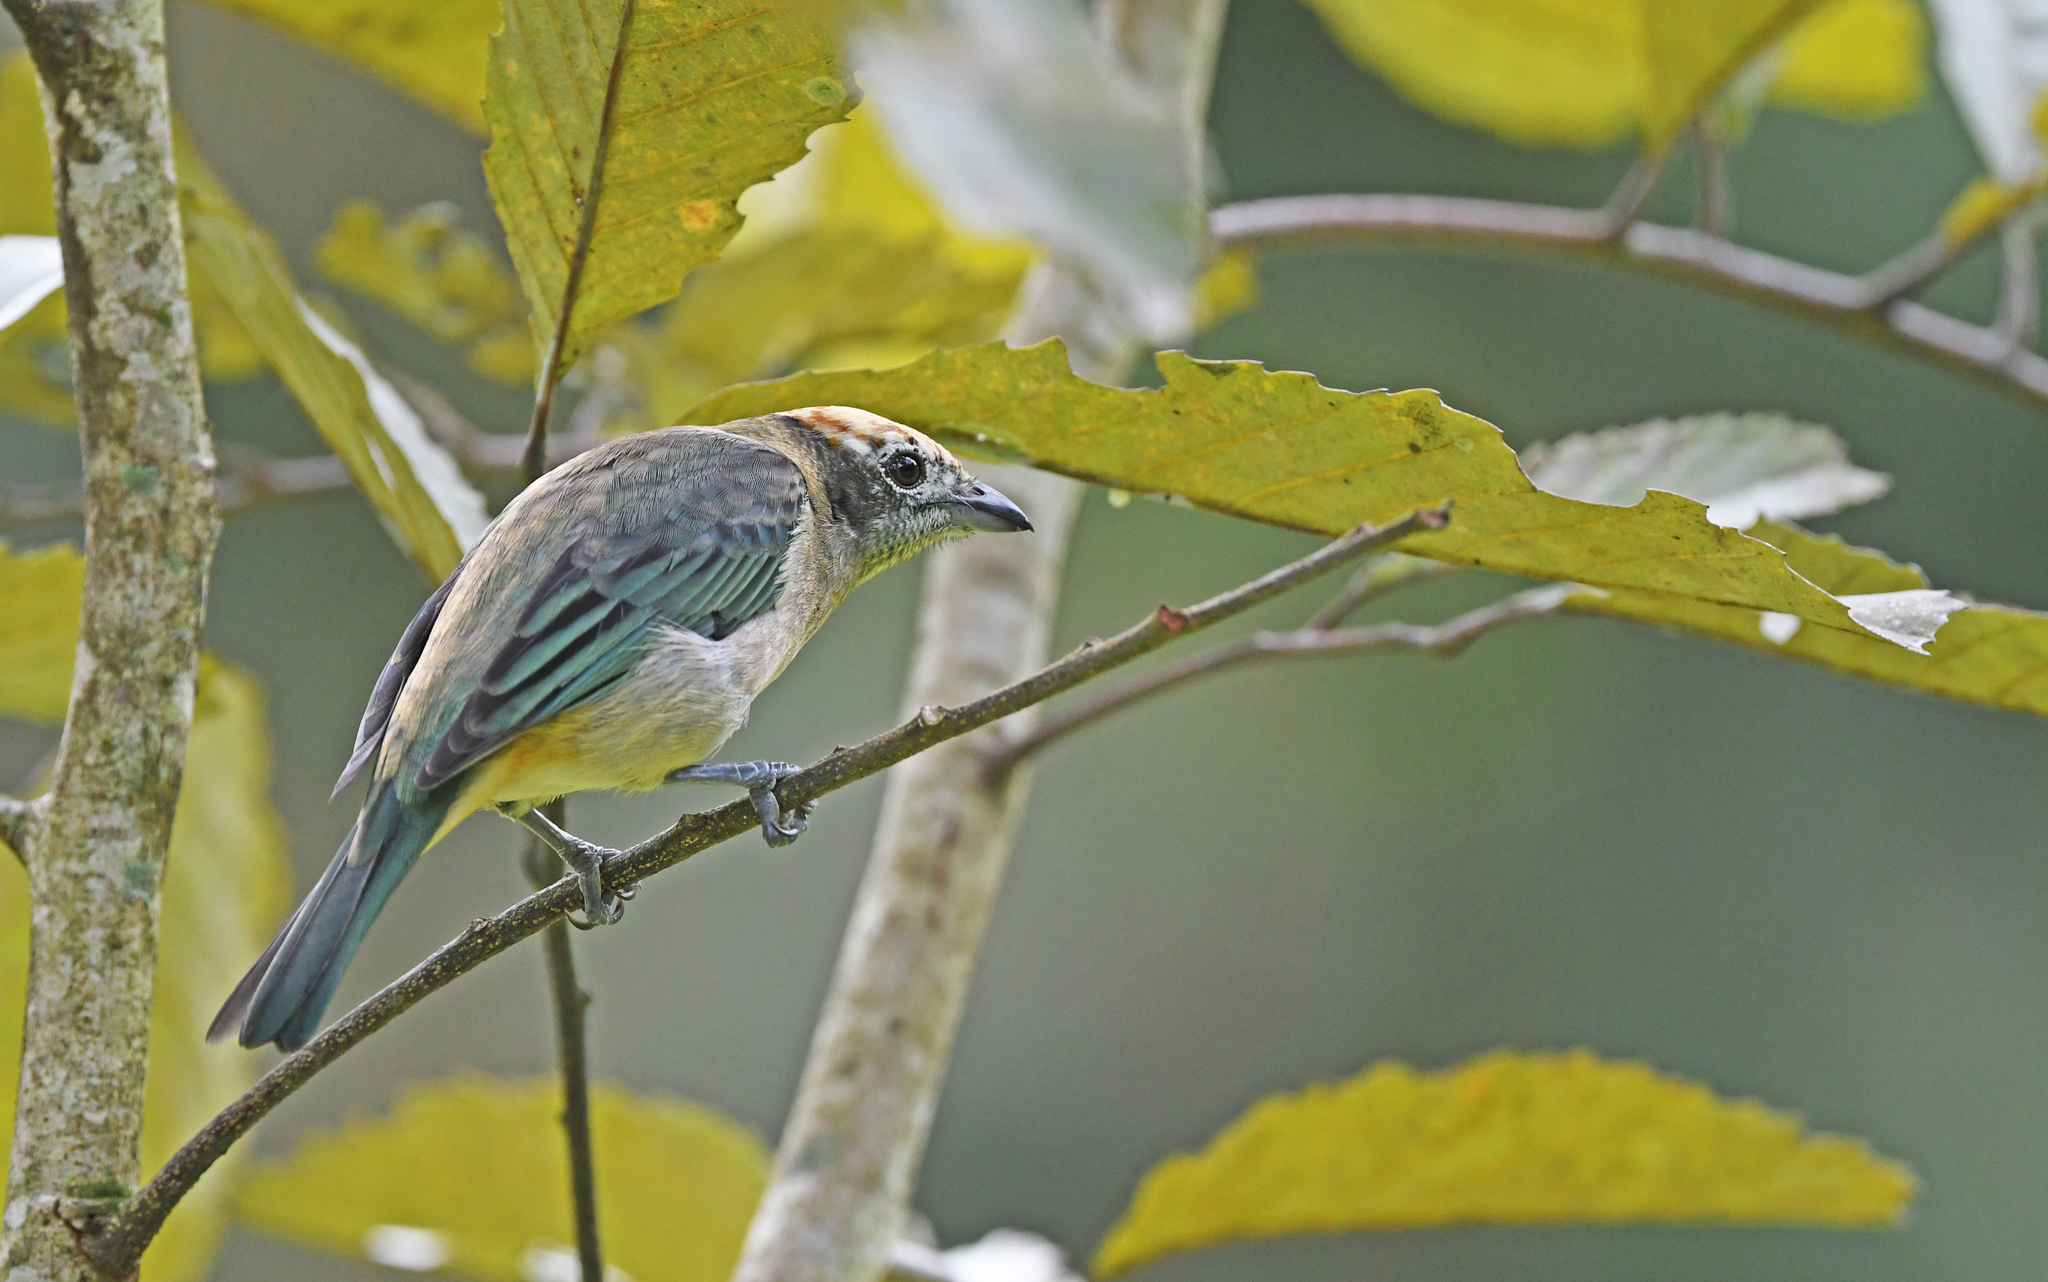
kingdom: Animalia
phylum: Chordata
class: Aves
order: Passeriformes
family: Thraupidae
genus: Stilpnia
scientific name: Stilpnia vitriolina
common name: Scrub tanager
